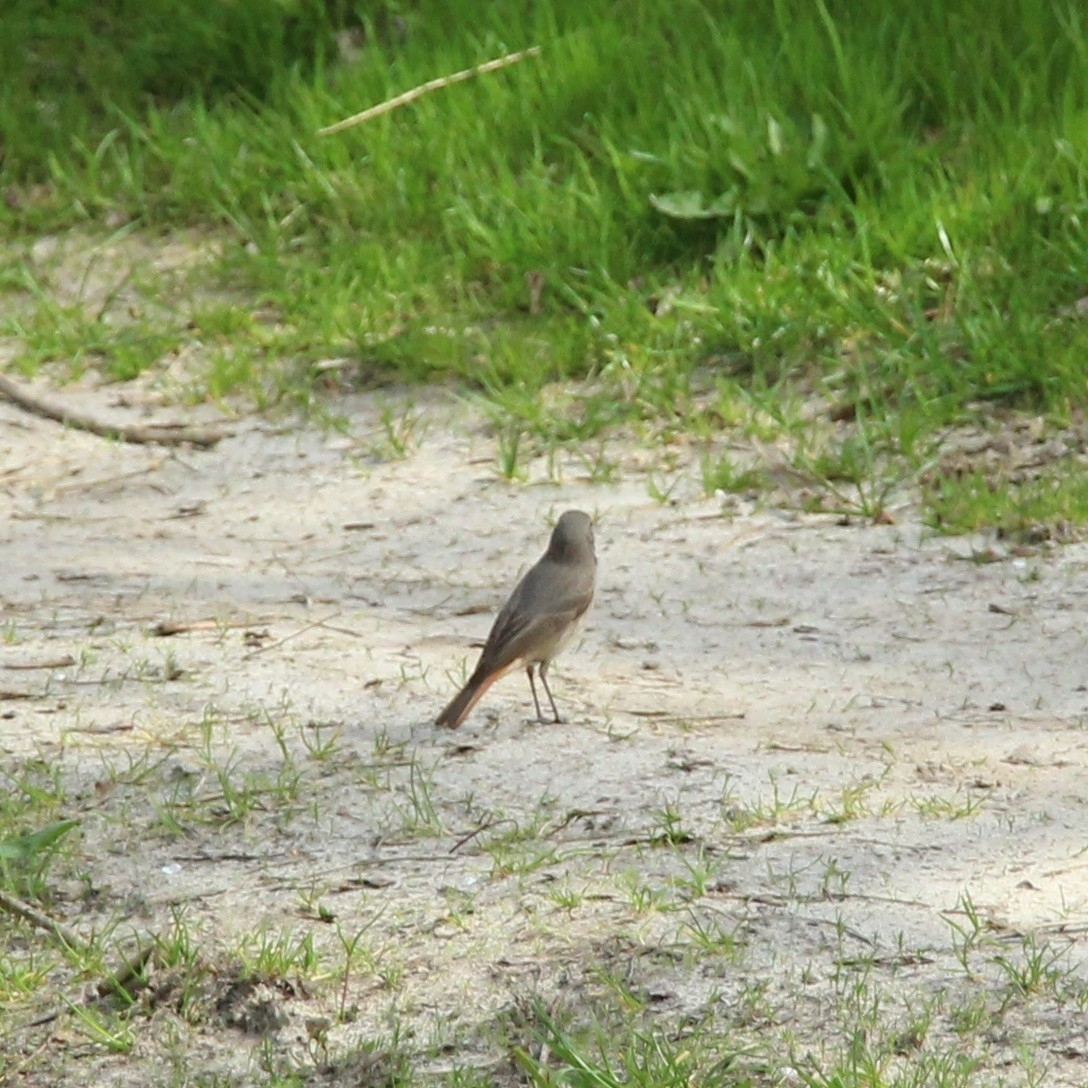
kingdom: Animalia
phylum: Chordata
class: Aves
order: Passeriformes
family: Muscicapidae
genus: Phoenicurus
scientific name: Phoenicurus ochruros
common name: Black redstart
